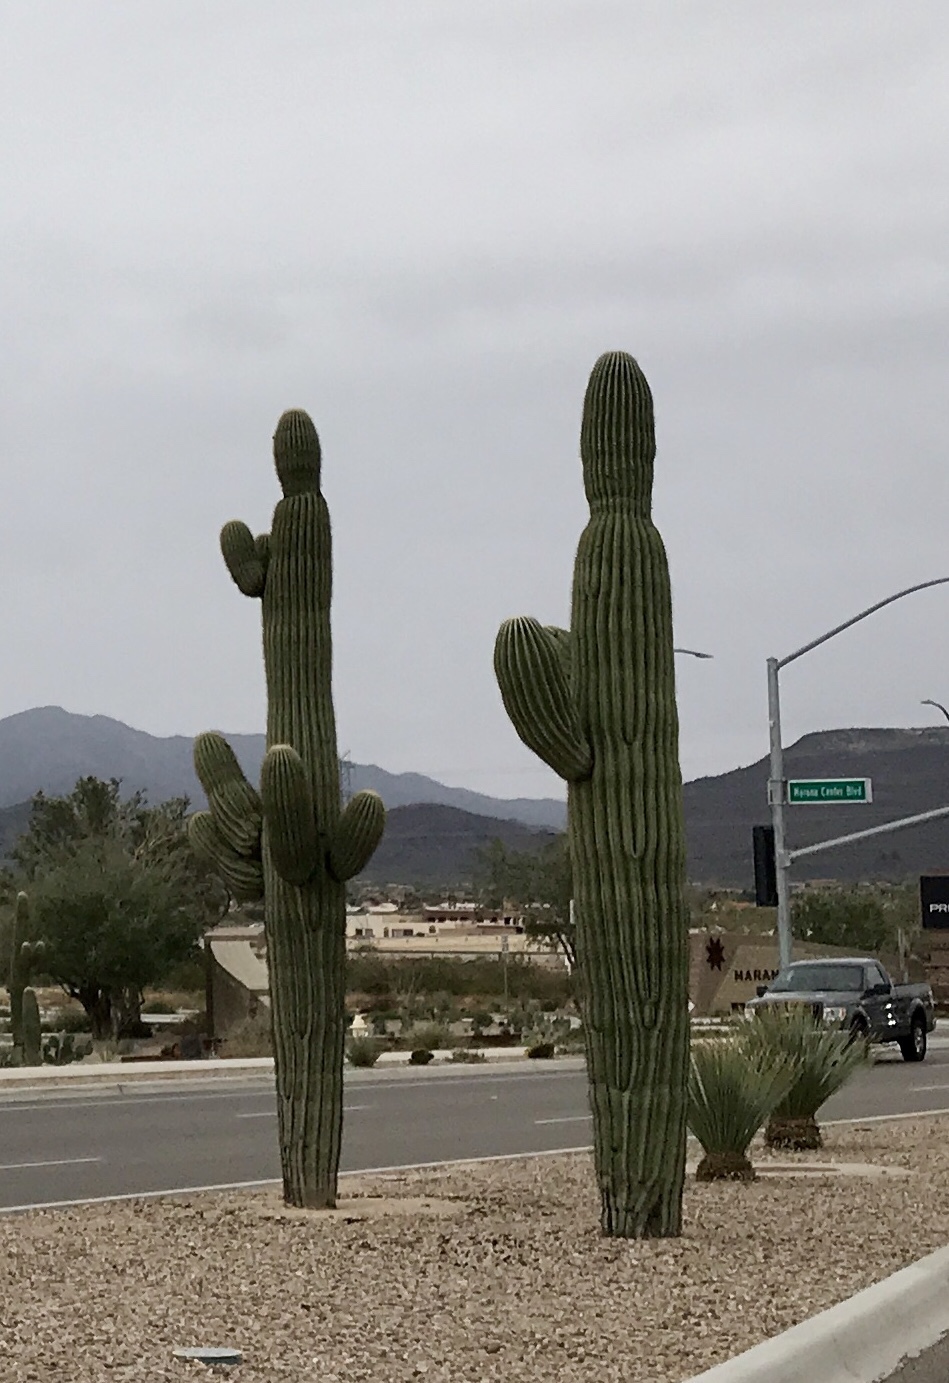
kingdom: Plantae
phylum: Tracheophyta
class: Magnoliopsida
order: Caryophyllales
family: Cactaceae
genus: Carnegiea
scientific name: Carnegiea gigantea
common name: Saguaro
